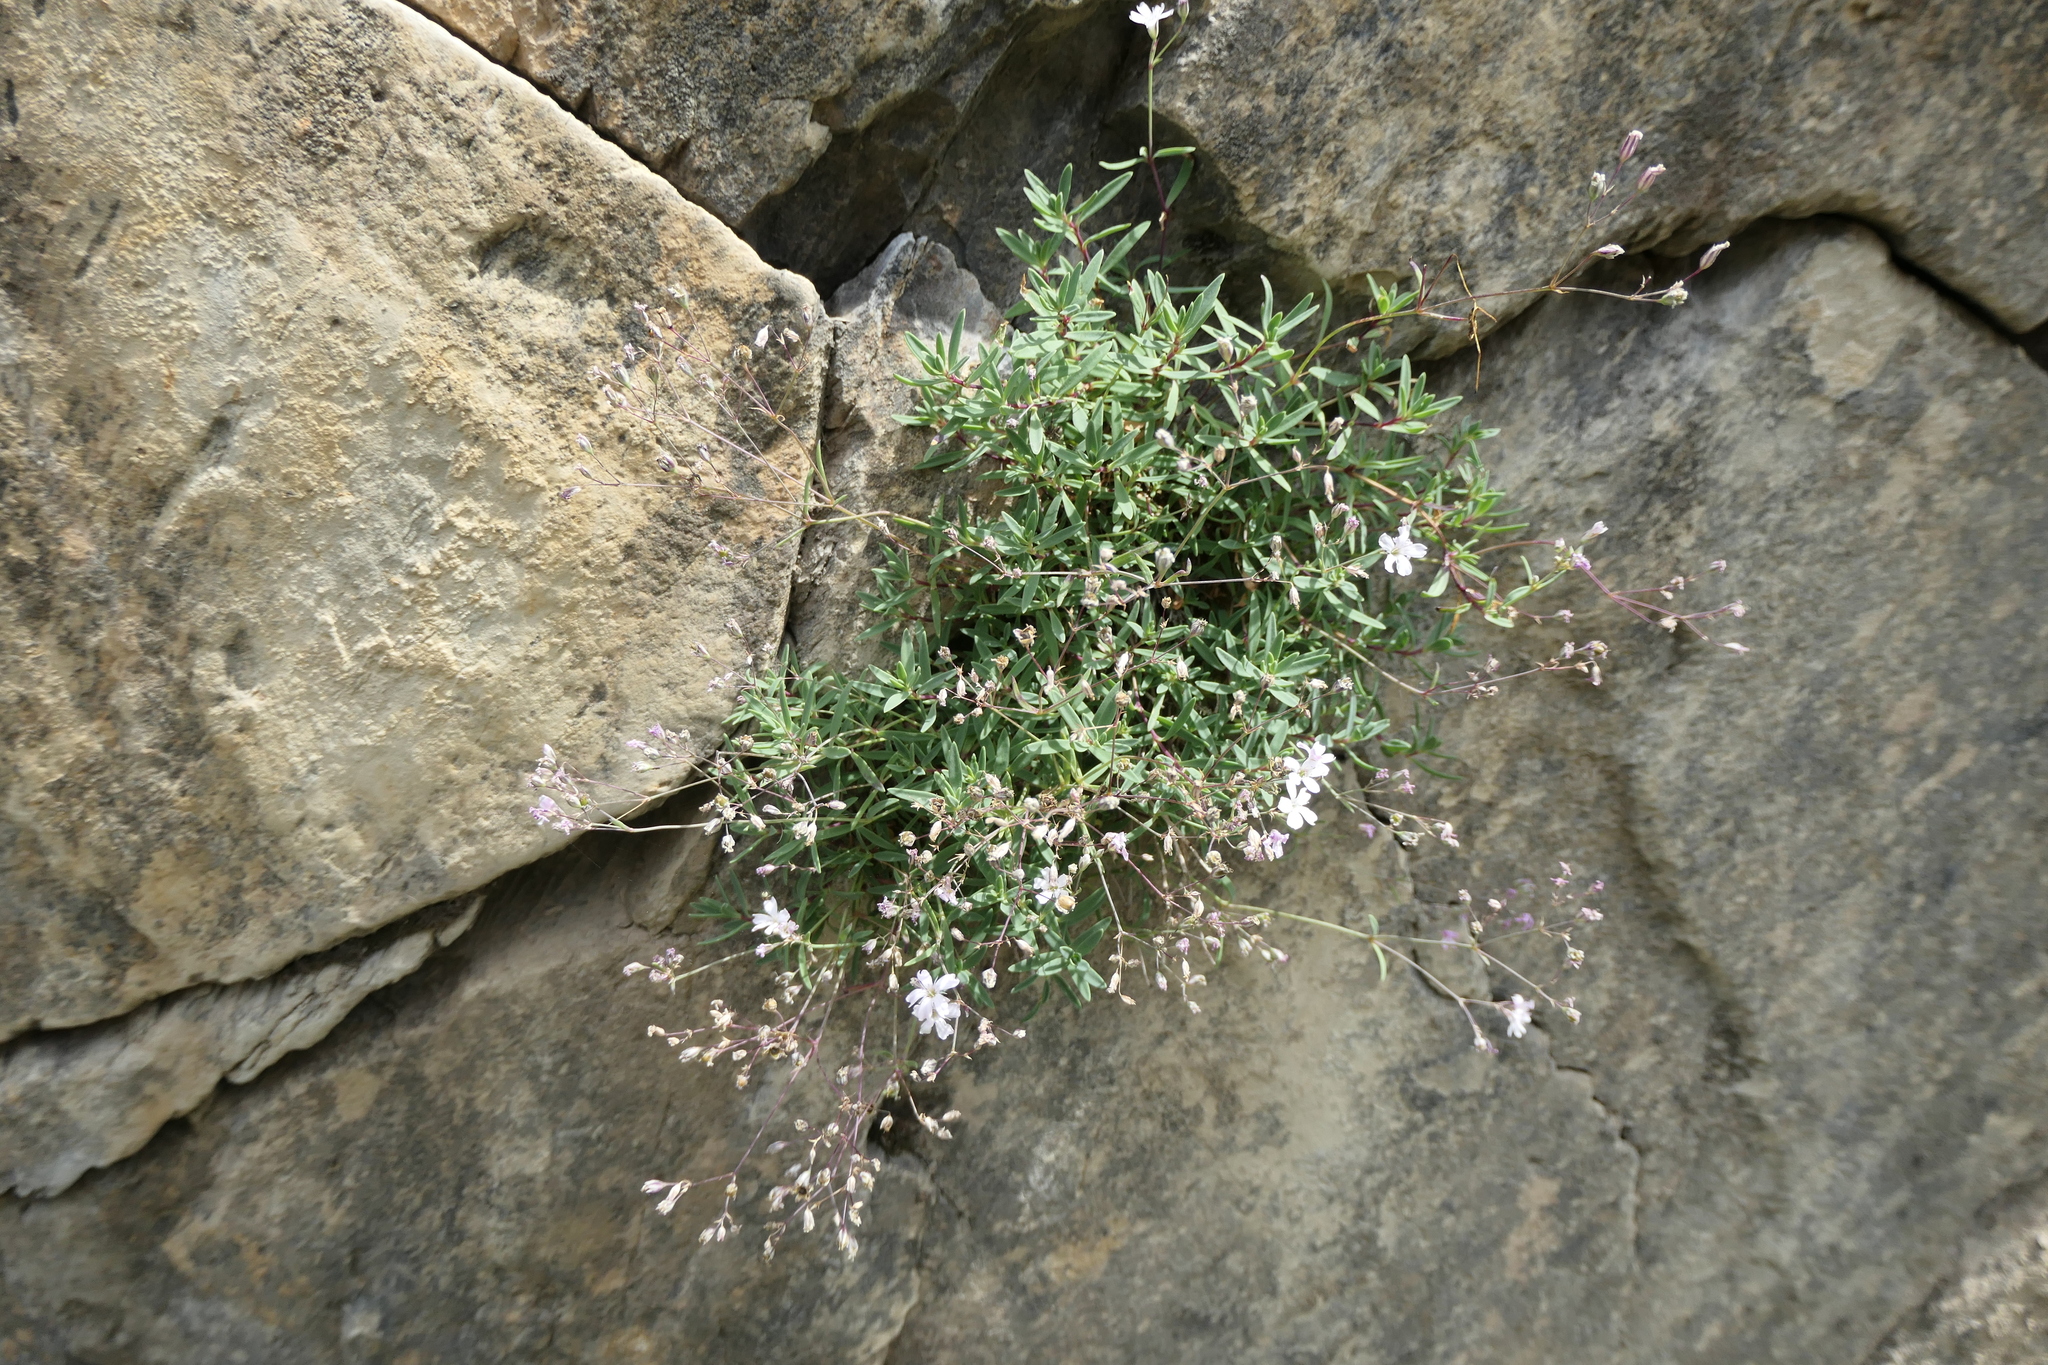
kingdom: Plantae
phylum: Tracheophyta
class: Magnoliopsida
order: Caryophyllales
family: Caryophyllaceae
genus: Gypsophila
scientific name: Gypsophila repens
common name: Creeping baby's-breath
